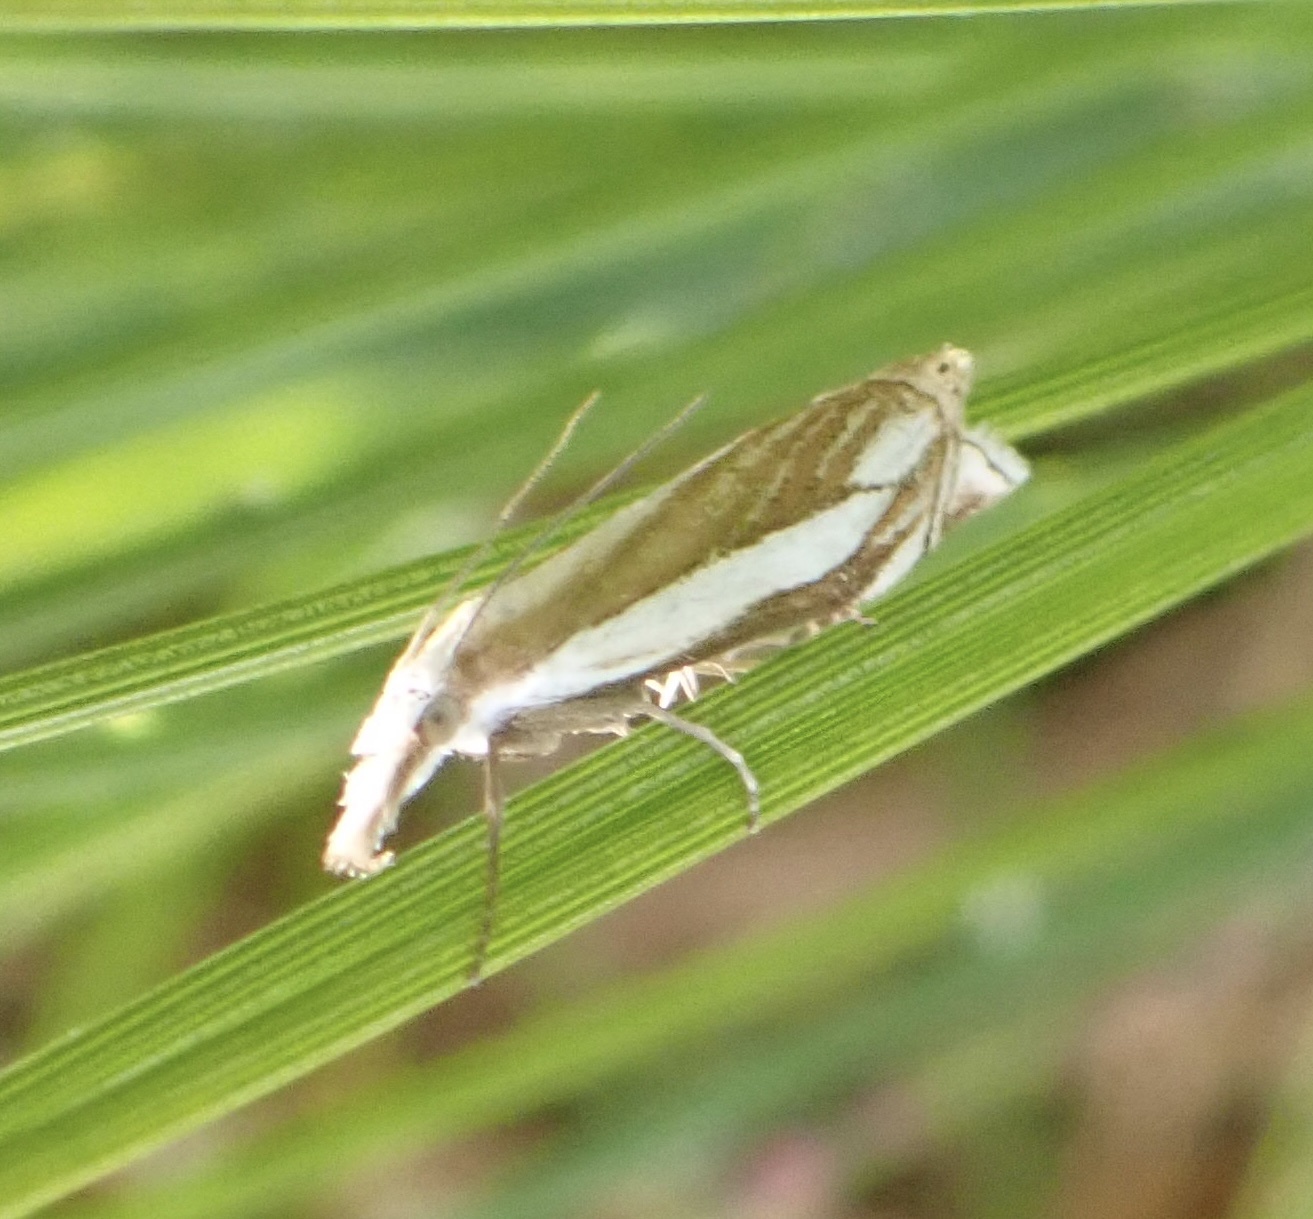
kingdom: Animalia
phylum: Arthropoda
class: Insecta
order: Lepidoptera
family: Crambidae
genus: Crambus
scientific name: Crambus pascuella
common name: Inlaid grass-veneer
